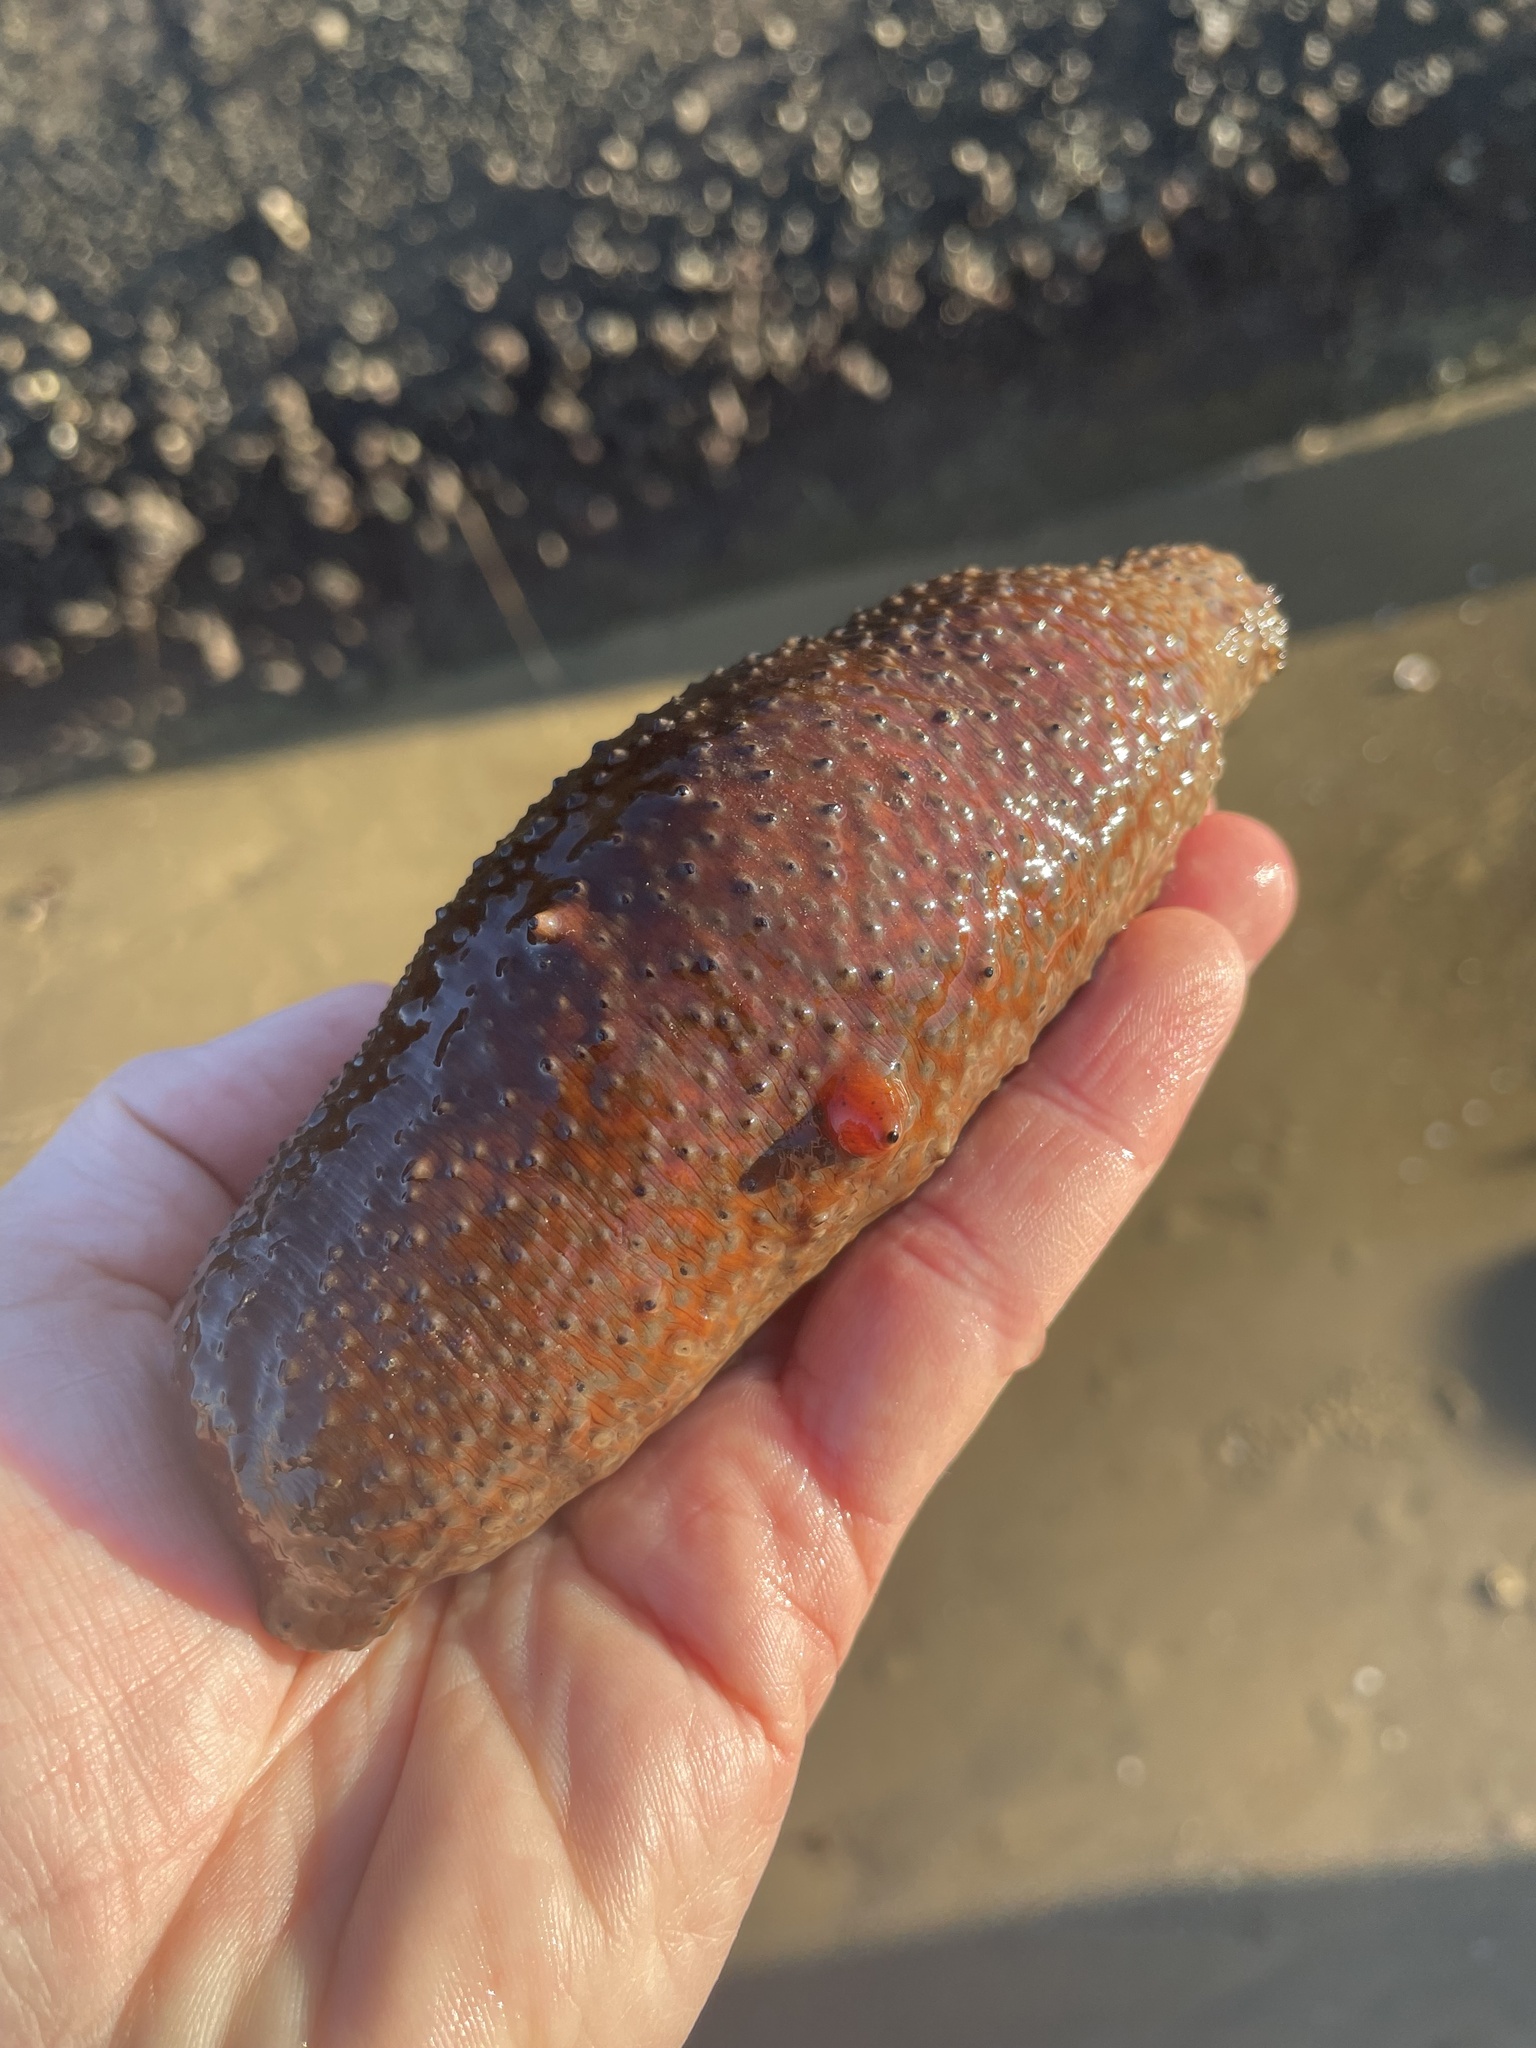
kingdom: Animalia
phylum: Echinodermata
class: Holothuroidea
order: Synallactida
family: Stichopodidae
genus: Apostichopus
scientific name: Apostichopus parvimensis
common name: Warty sea cucumber
